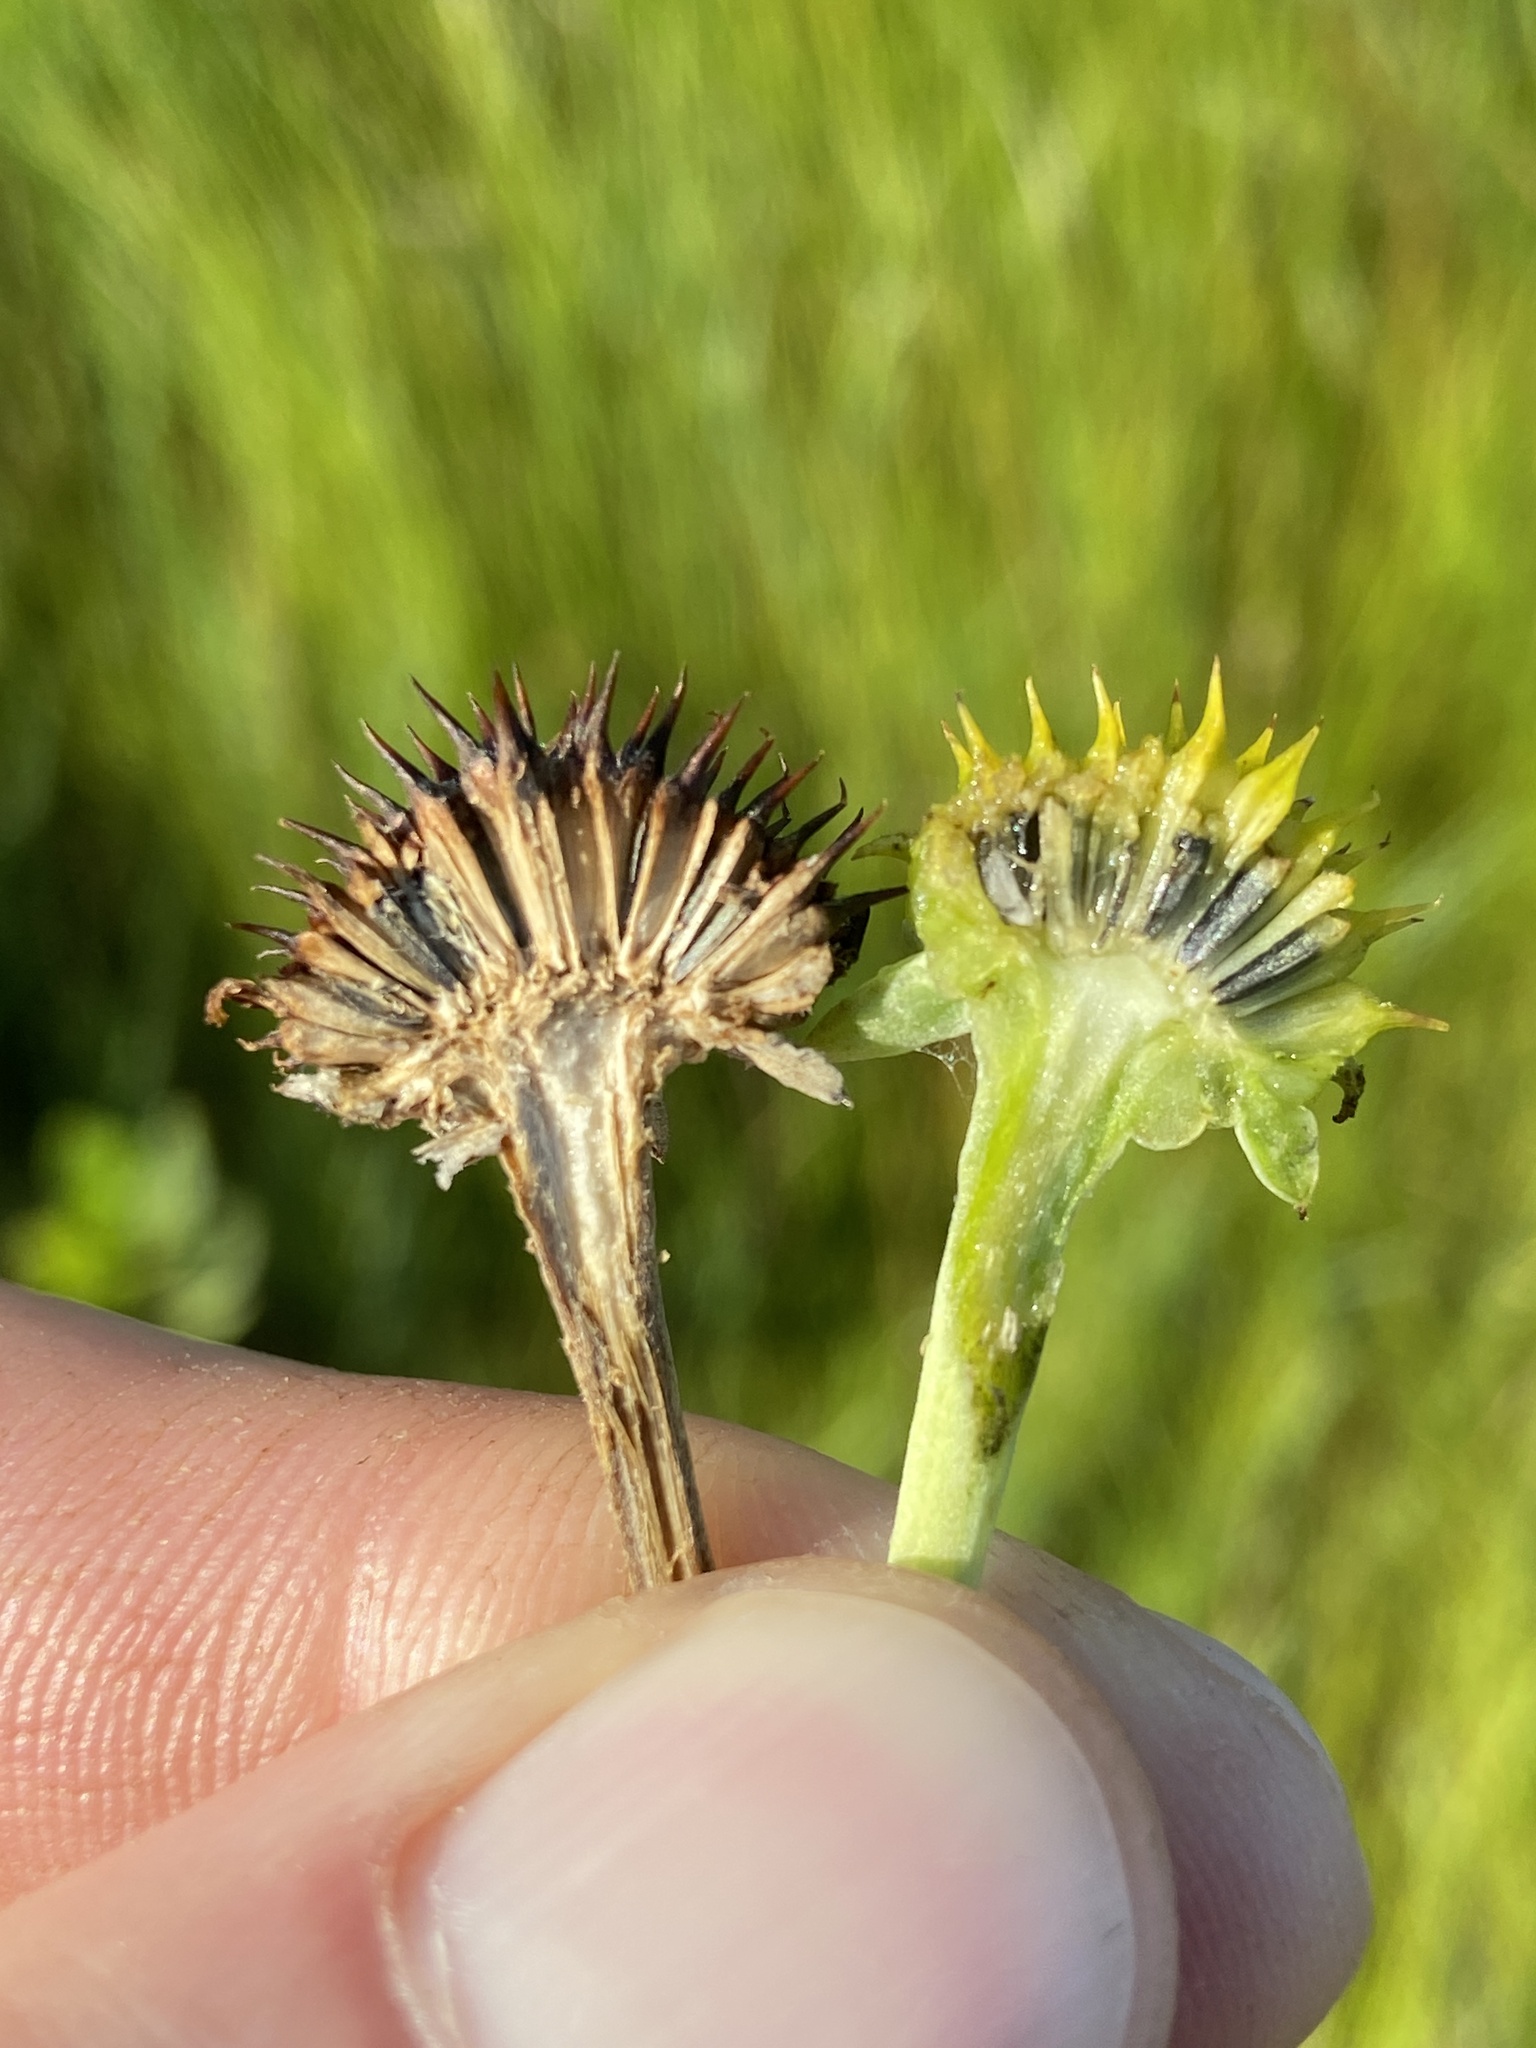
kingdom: Plantae
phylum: Tracheophyta
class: Magnoliopsida
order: Asterales
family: Asteraceae
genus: Borrichia
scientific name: Borrichia frutescens
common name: Sea oxeye
